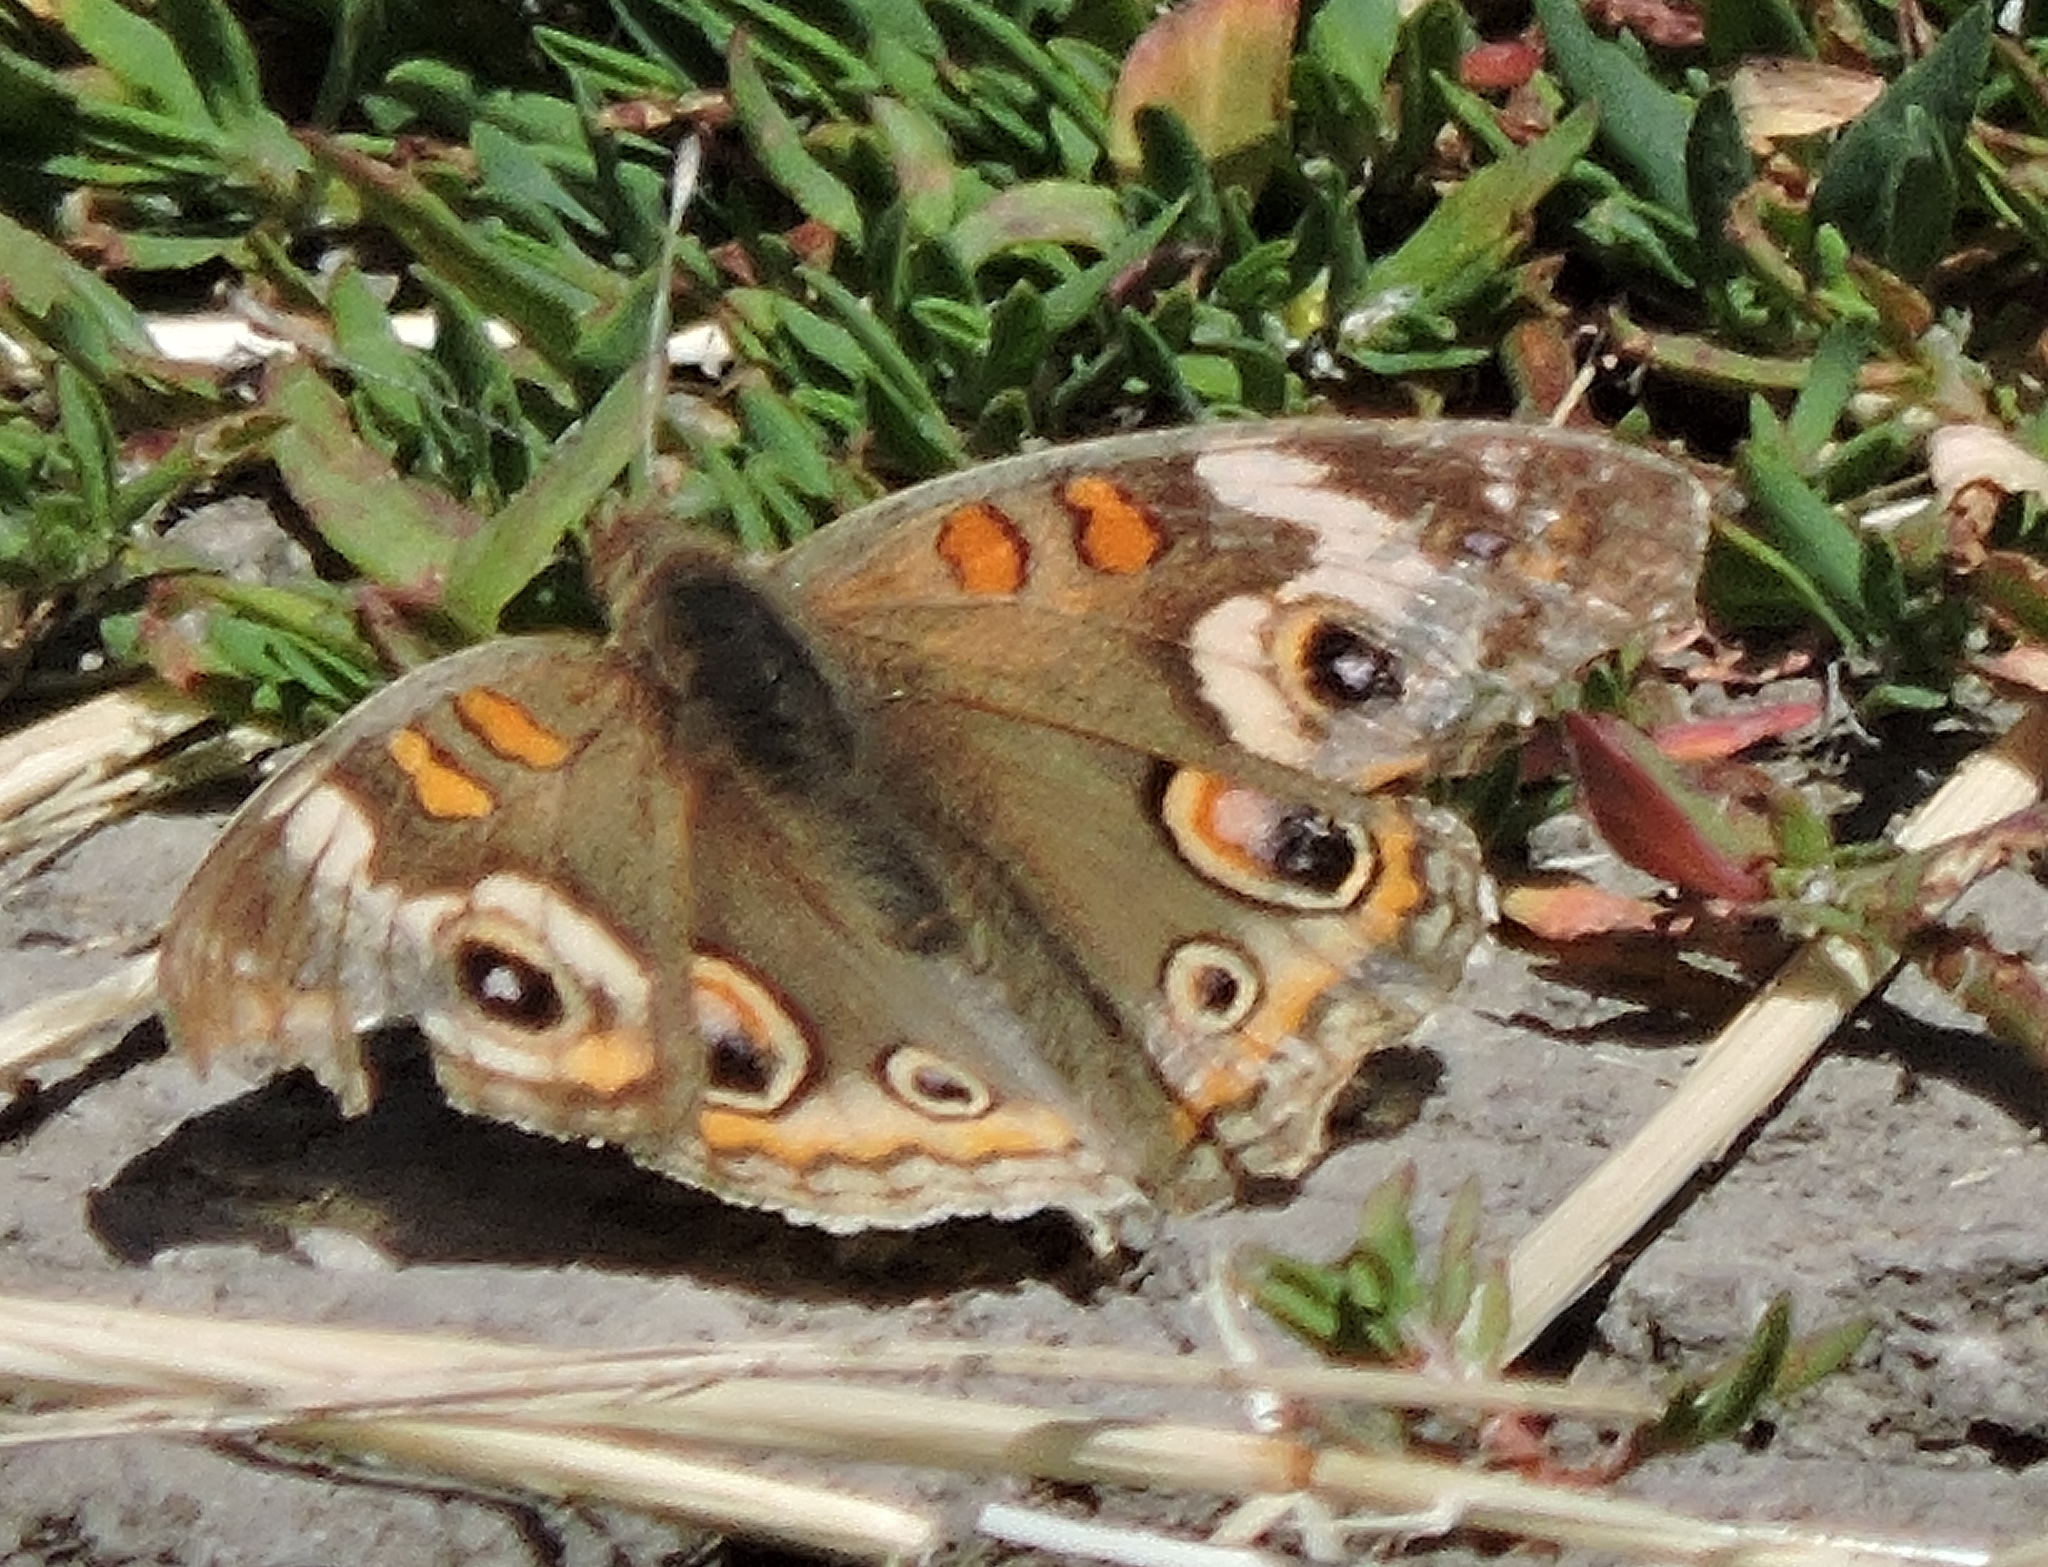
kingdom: Animalia
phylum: Arthropoda
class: Insecta
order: Lepidoptera
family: Nymphalidae
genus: Junonia
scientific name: Junonia grisea
